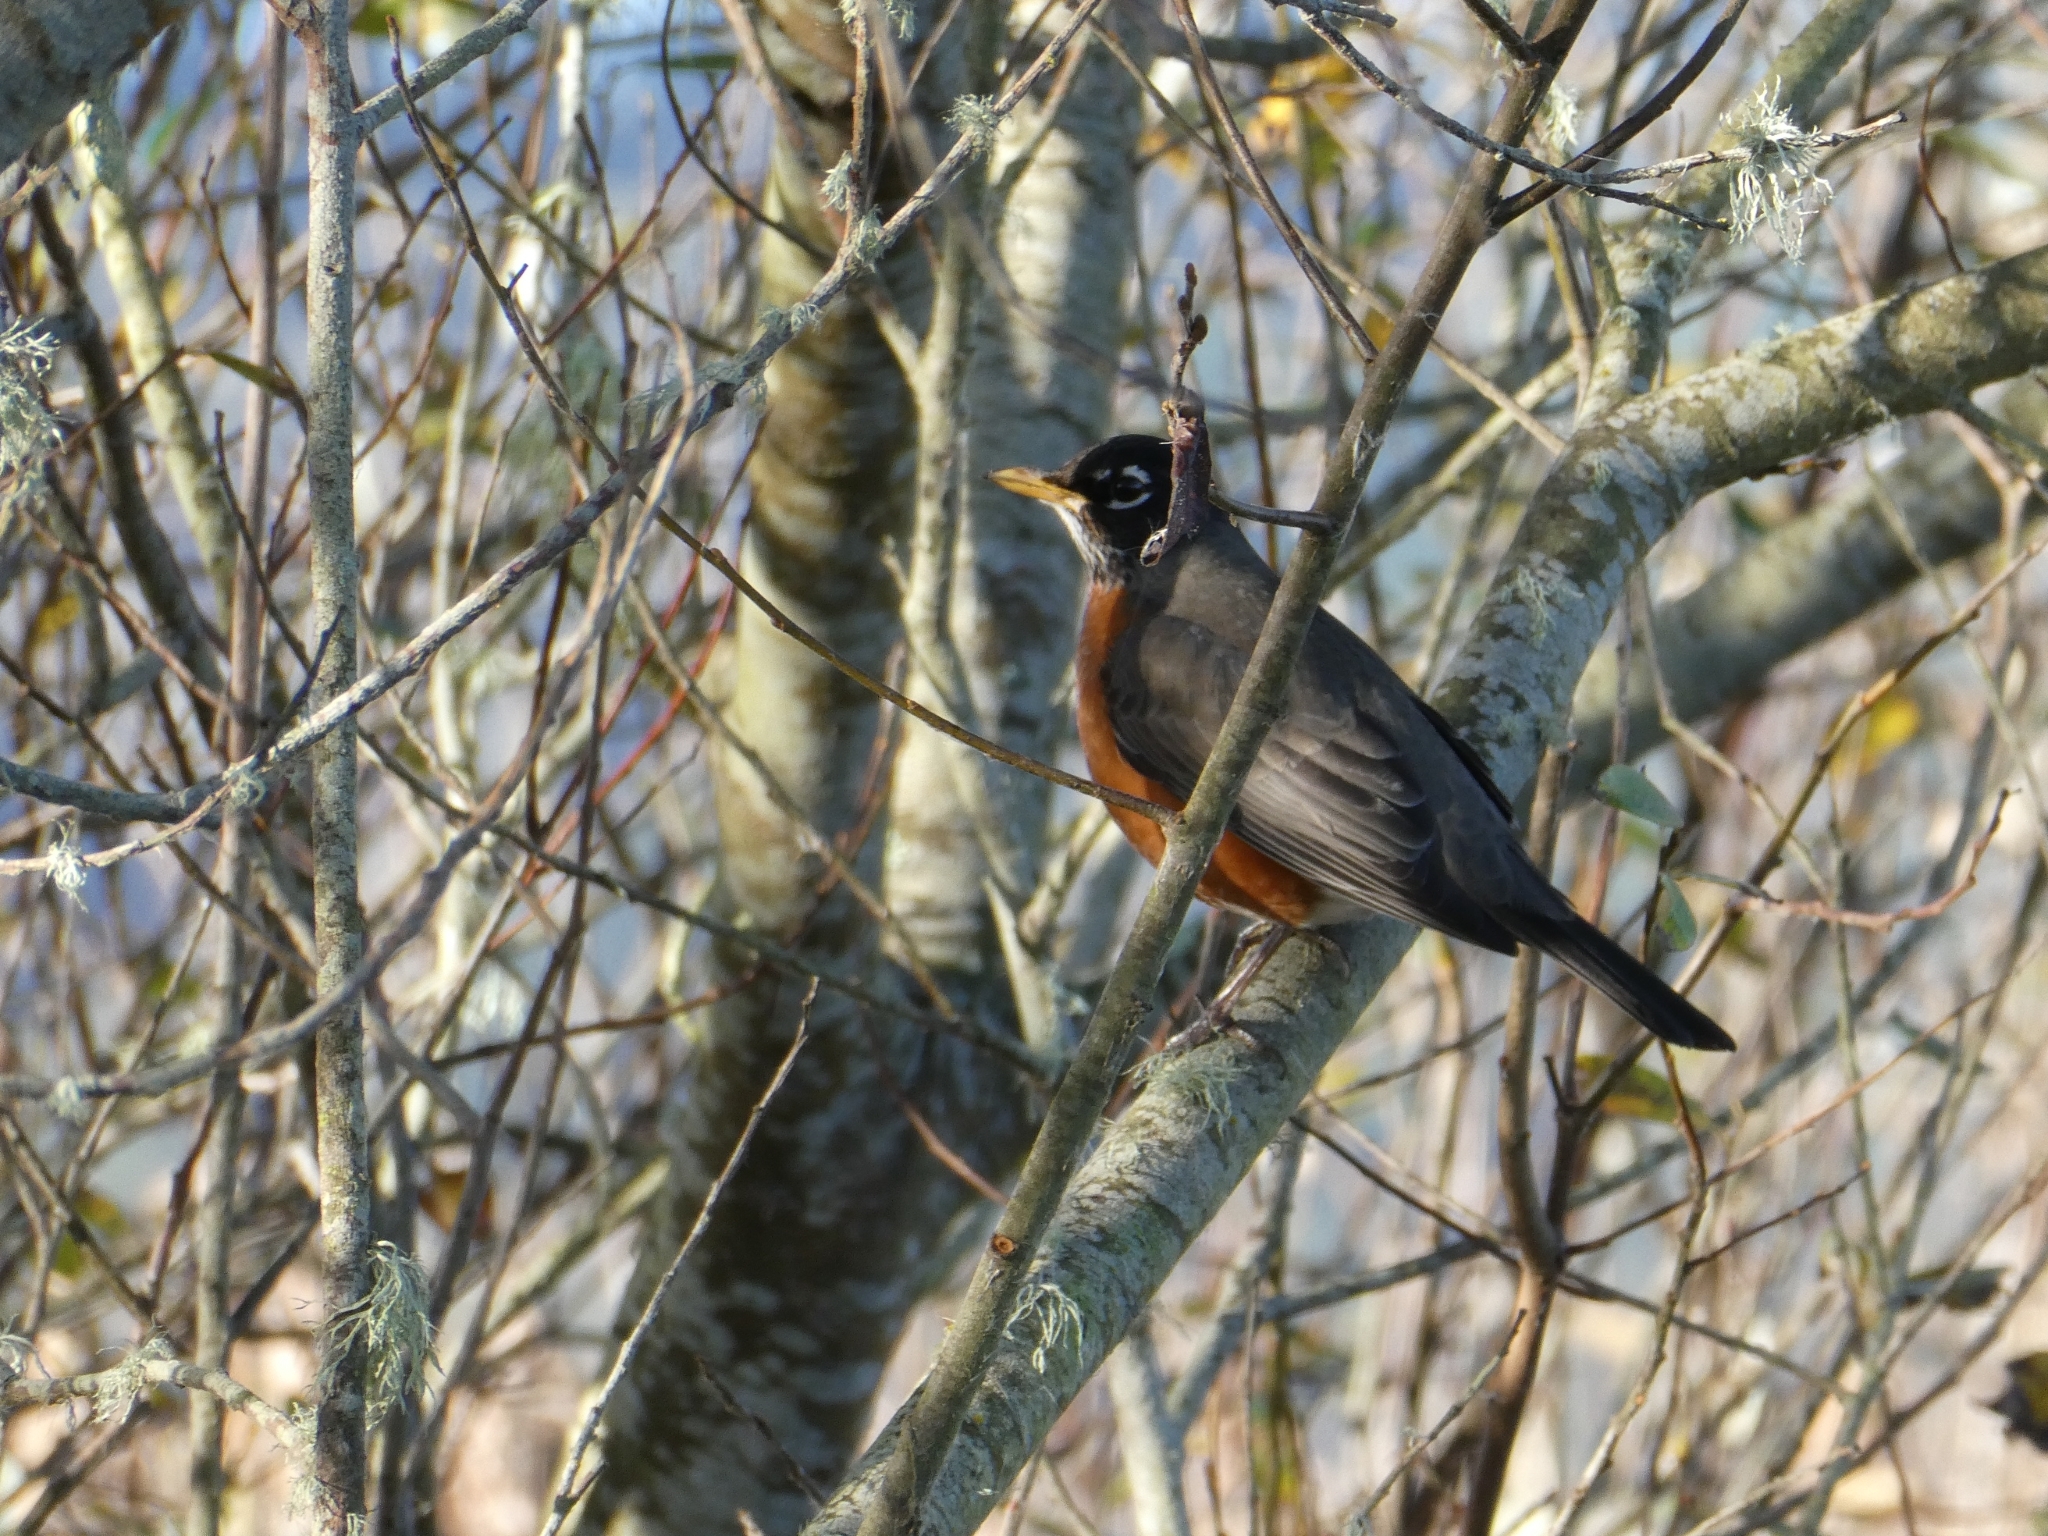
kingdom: Animalia
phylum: Chordata
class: Aves
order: Passeriformes
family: Turdidae
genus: Turdus
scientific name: Turdus migratorius
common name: American robin
